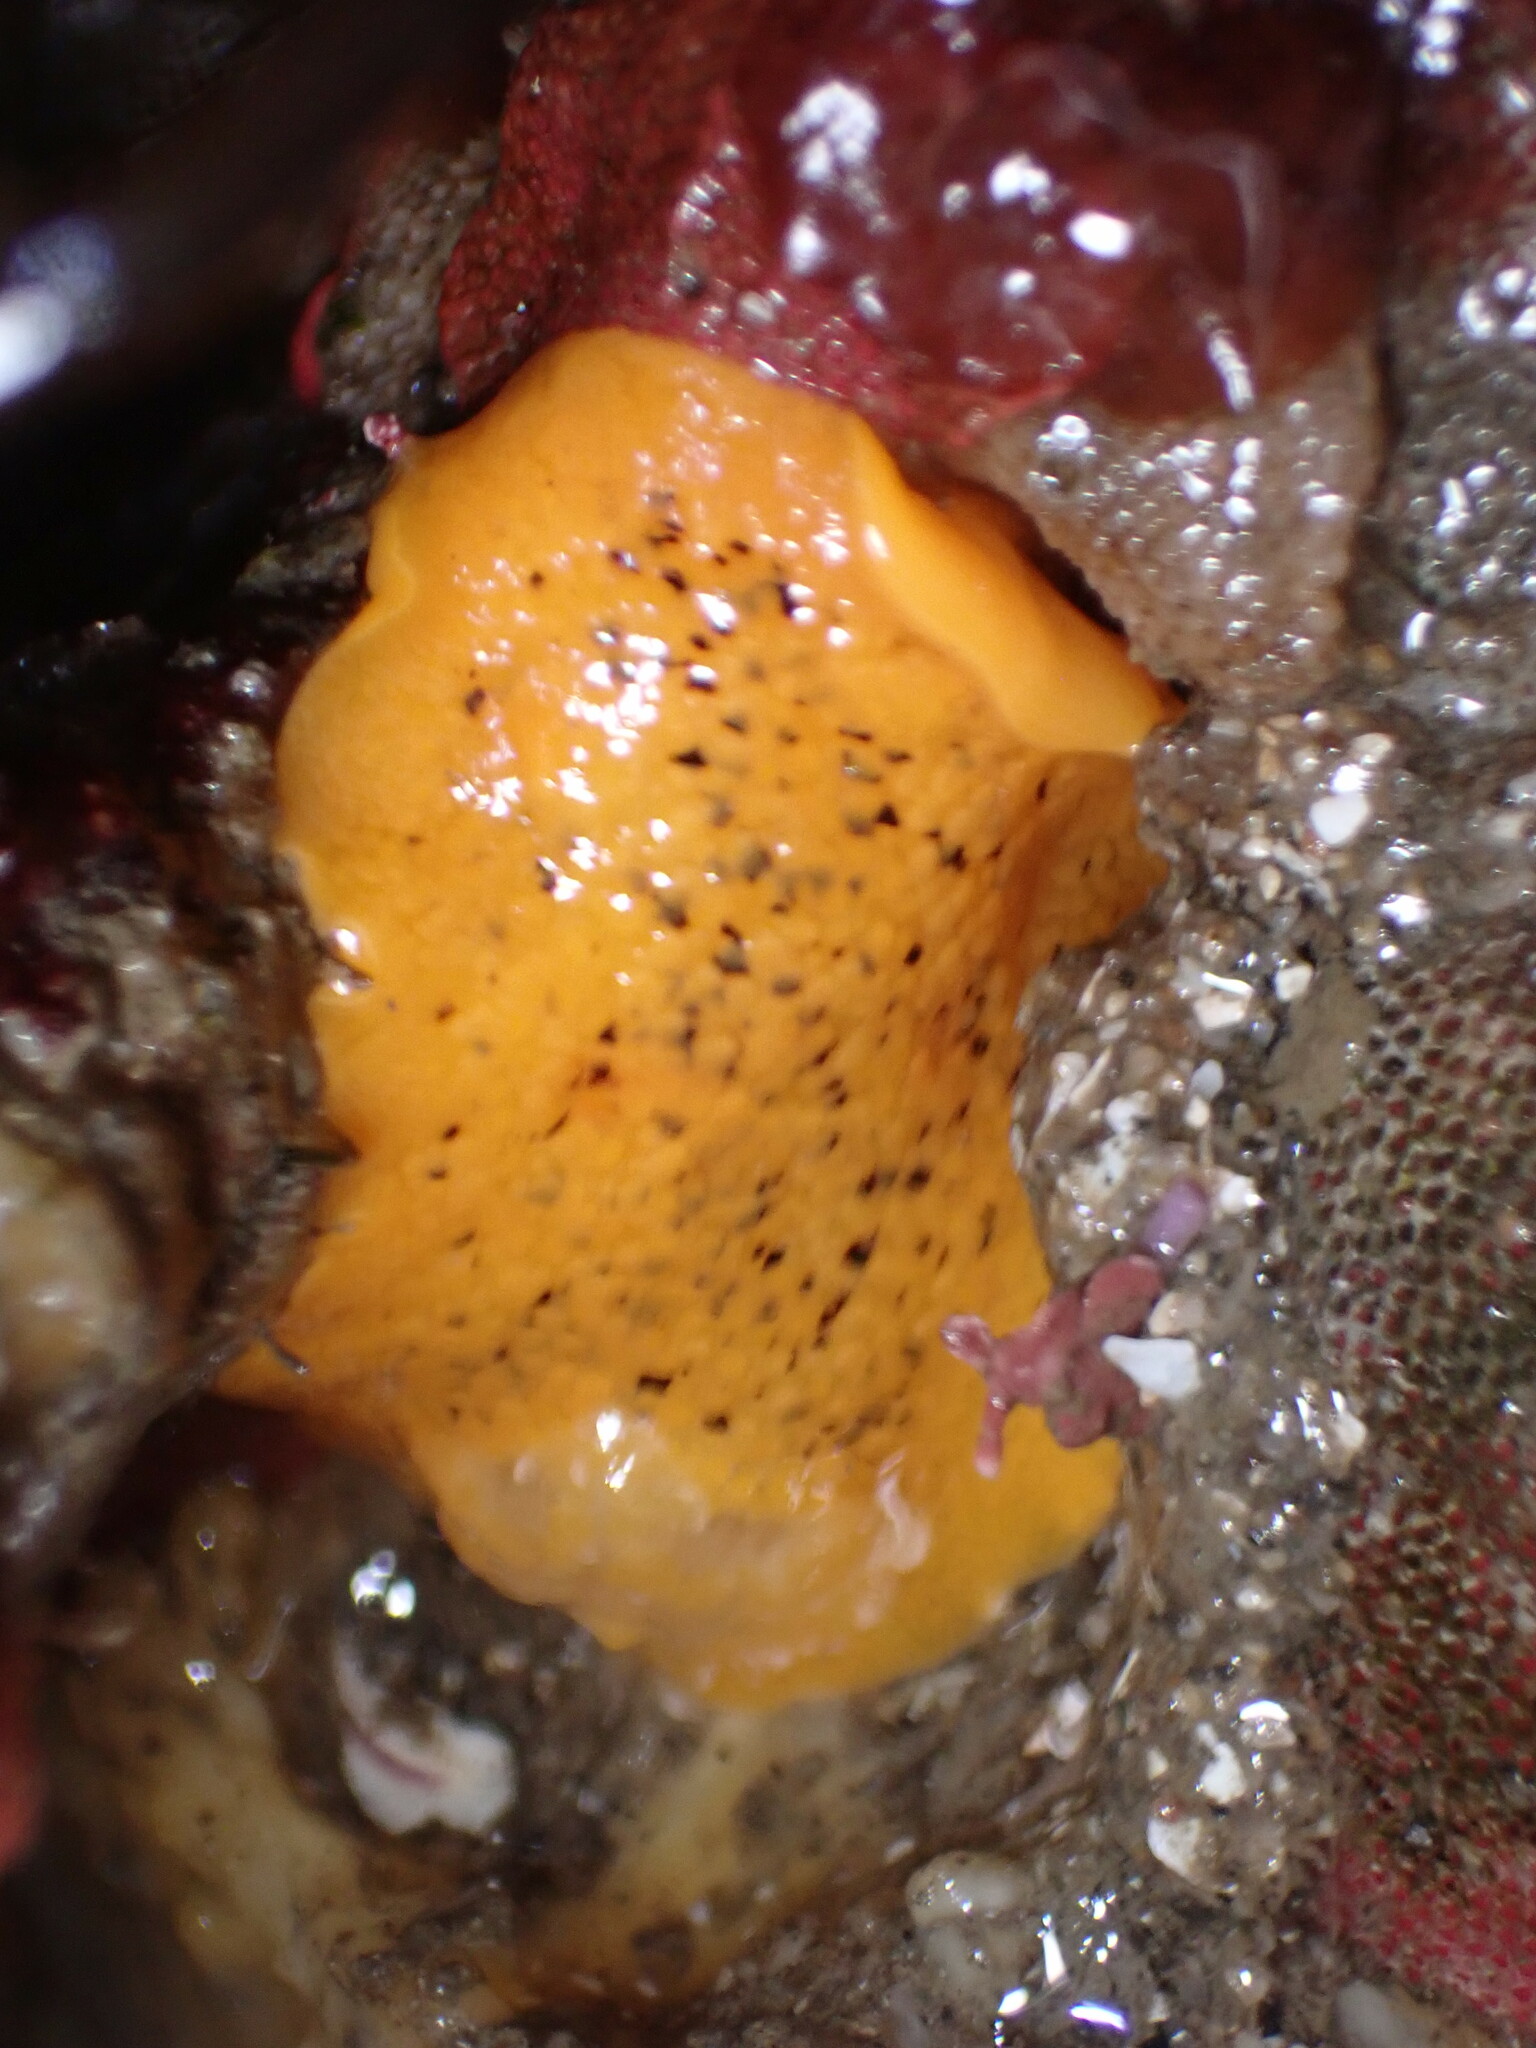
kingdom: Animalia
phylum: Mollusca
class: Gastropoda
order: Nudibranchia
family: Discodorididae
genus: Peltodoris
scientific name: Peltodoris nobilis
